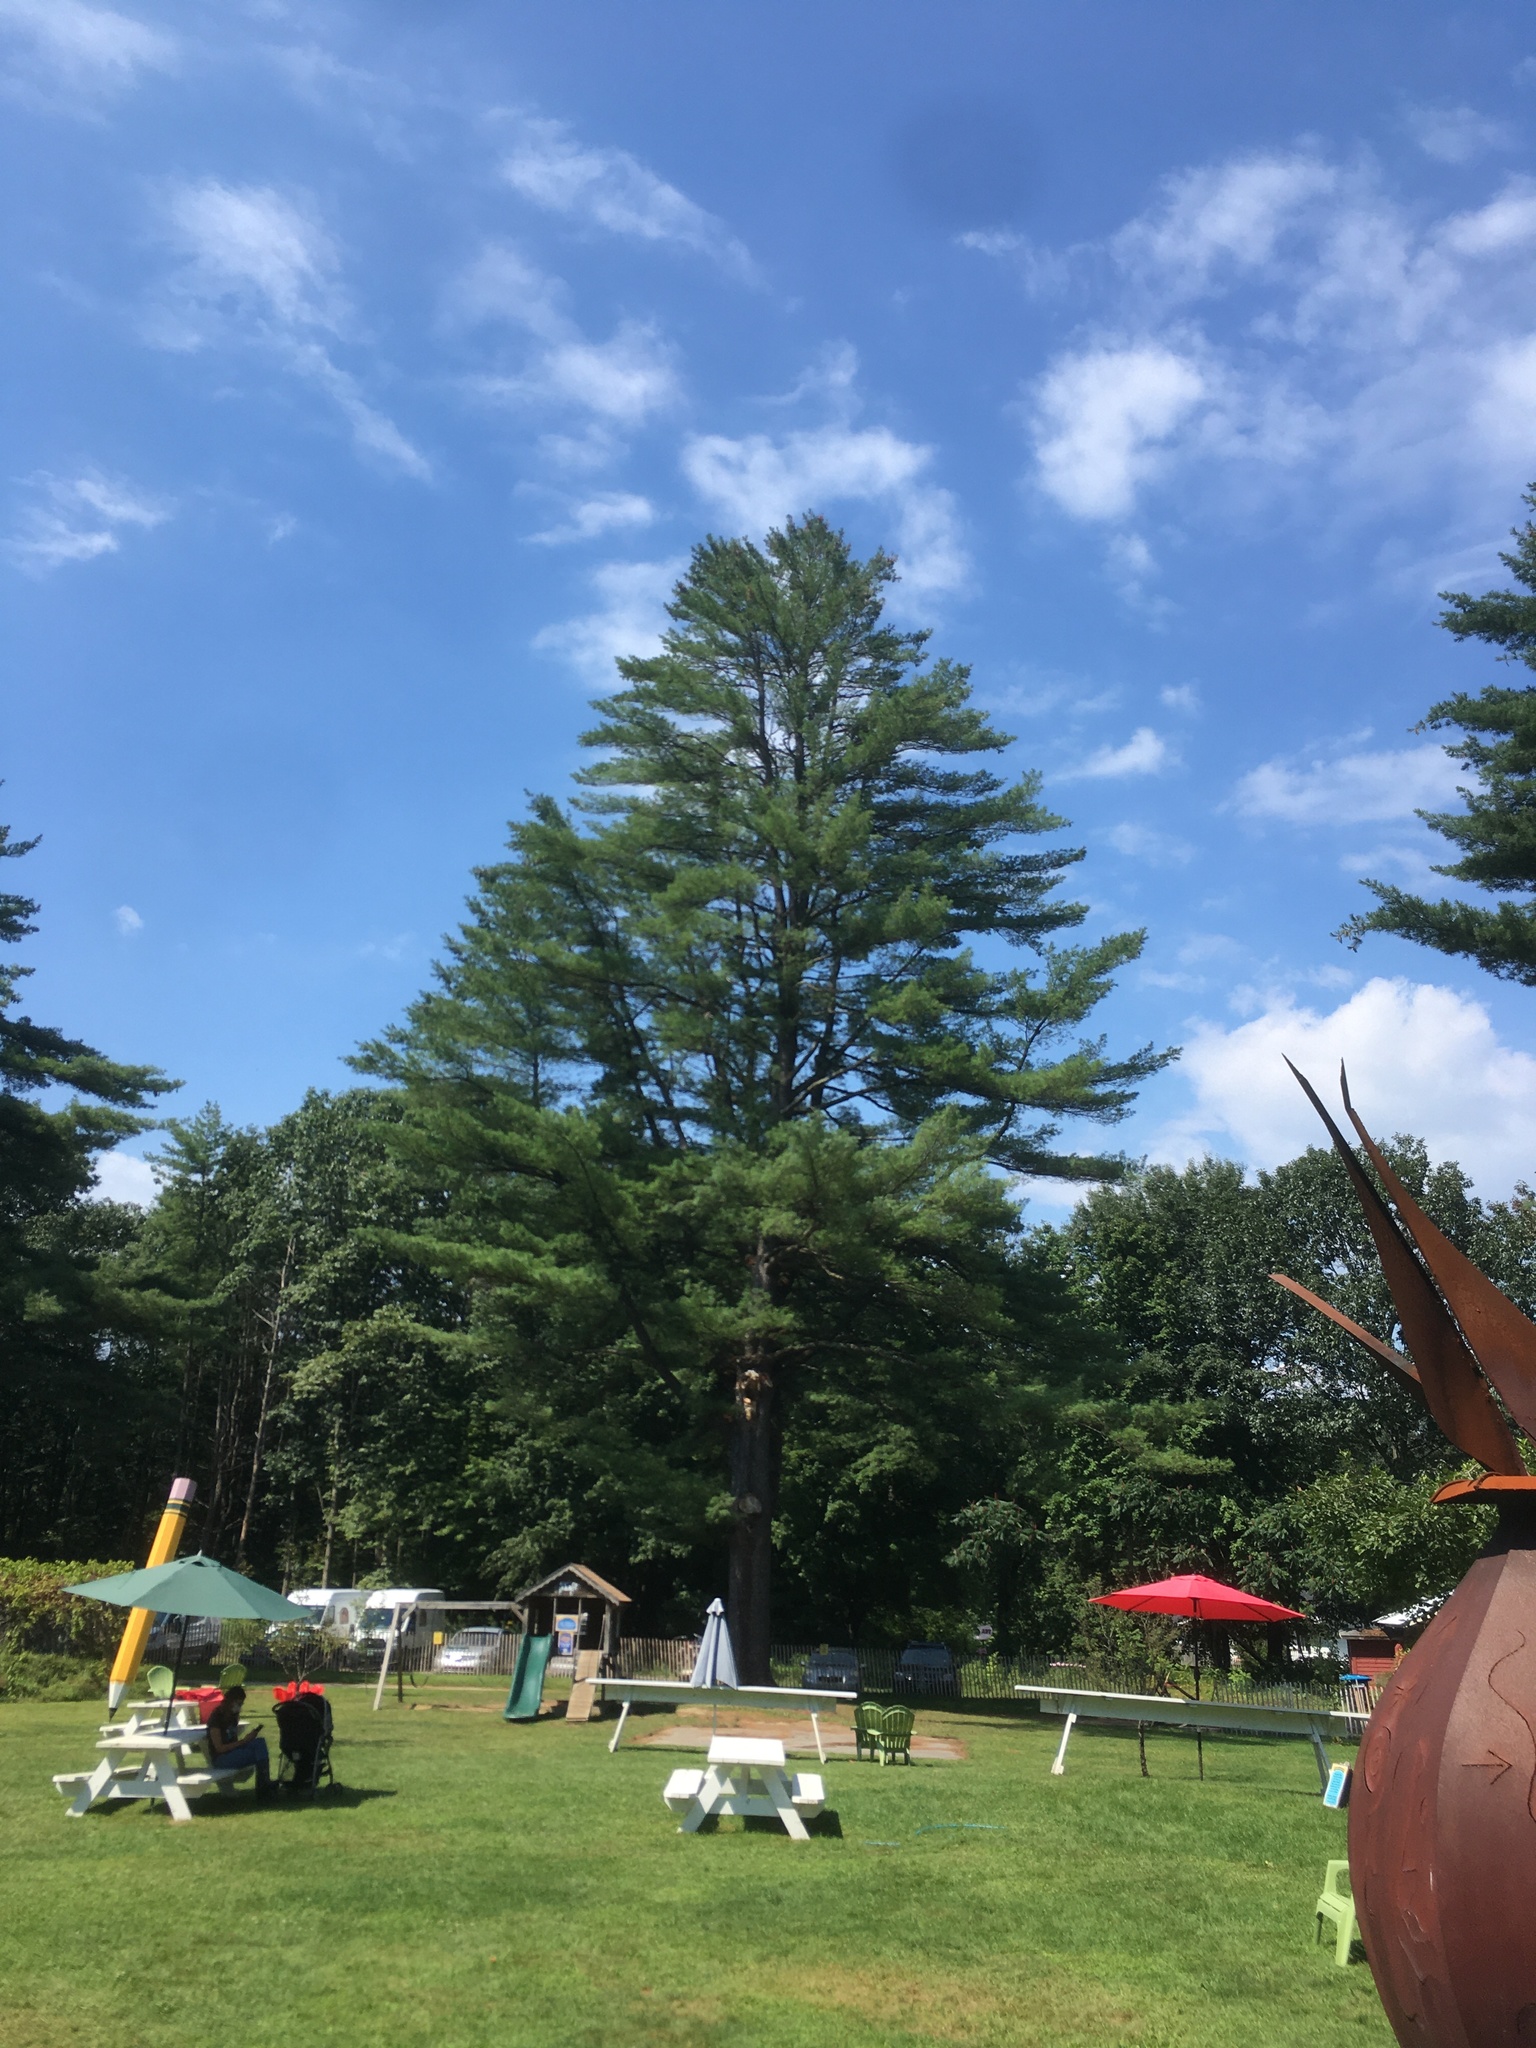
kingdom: Plantae
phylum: Tracheophyta
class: Pinopsida
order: Pinales
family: Pinaceae
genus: Pinus
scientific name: Pinus strobus
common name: Weymouth pine
